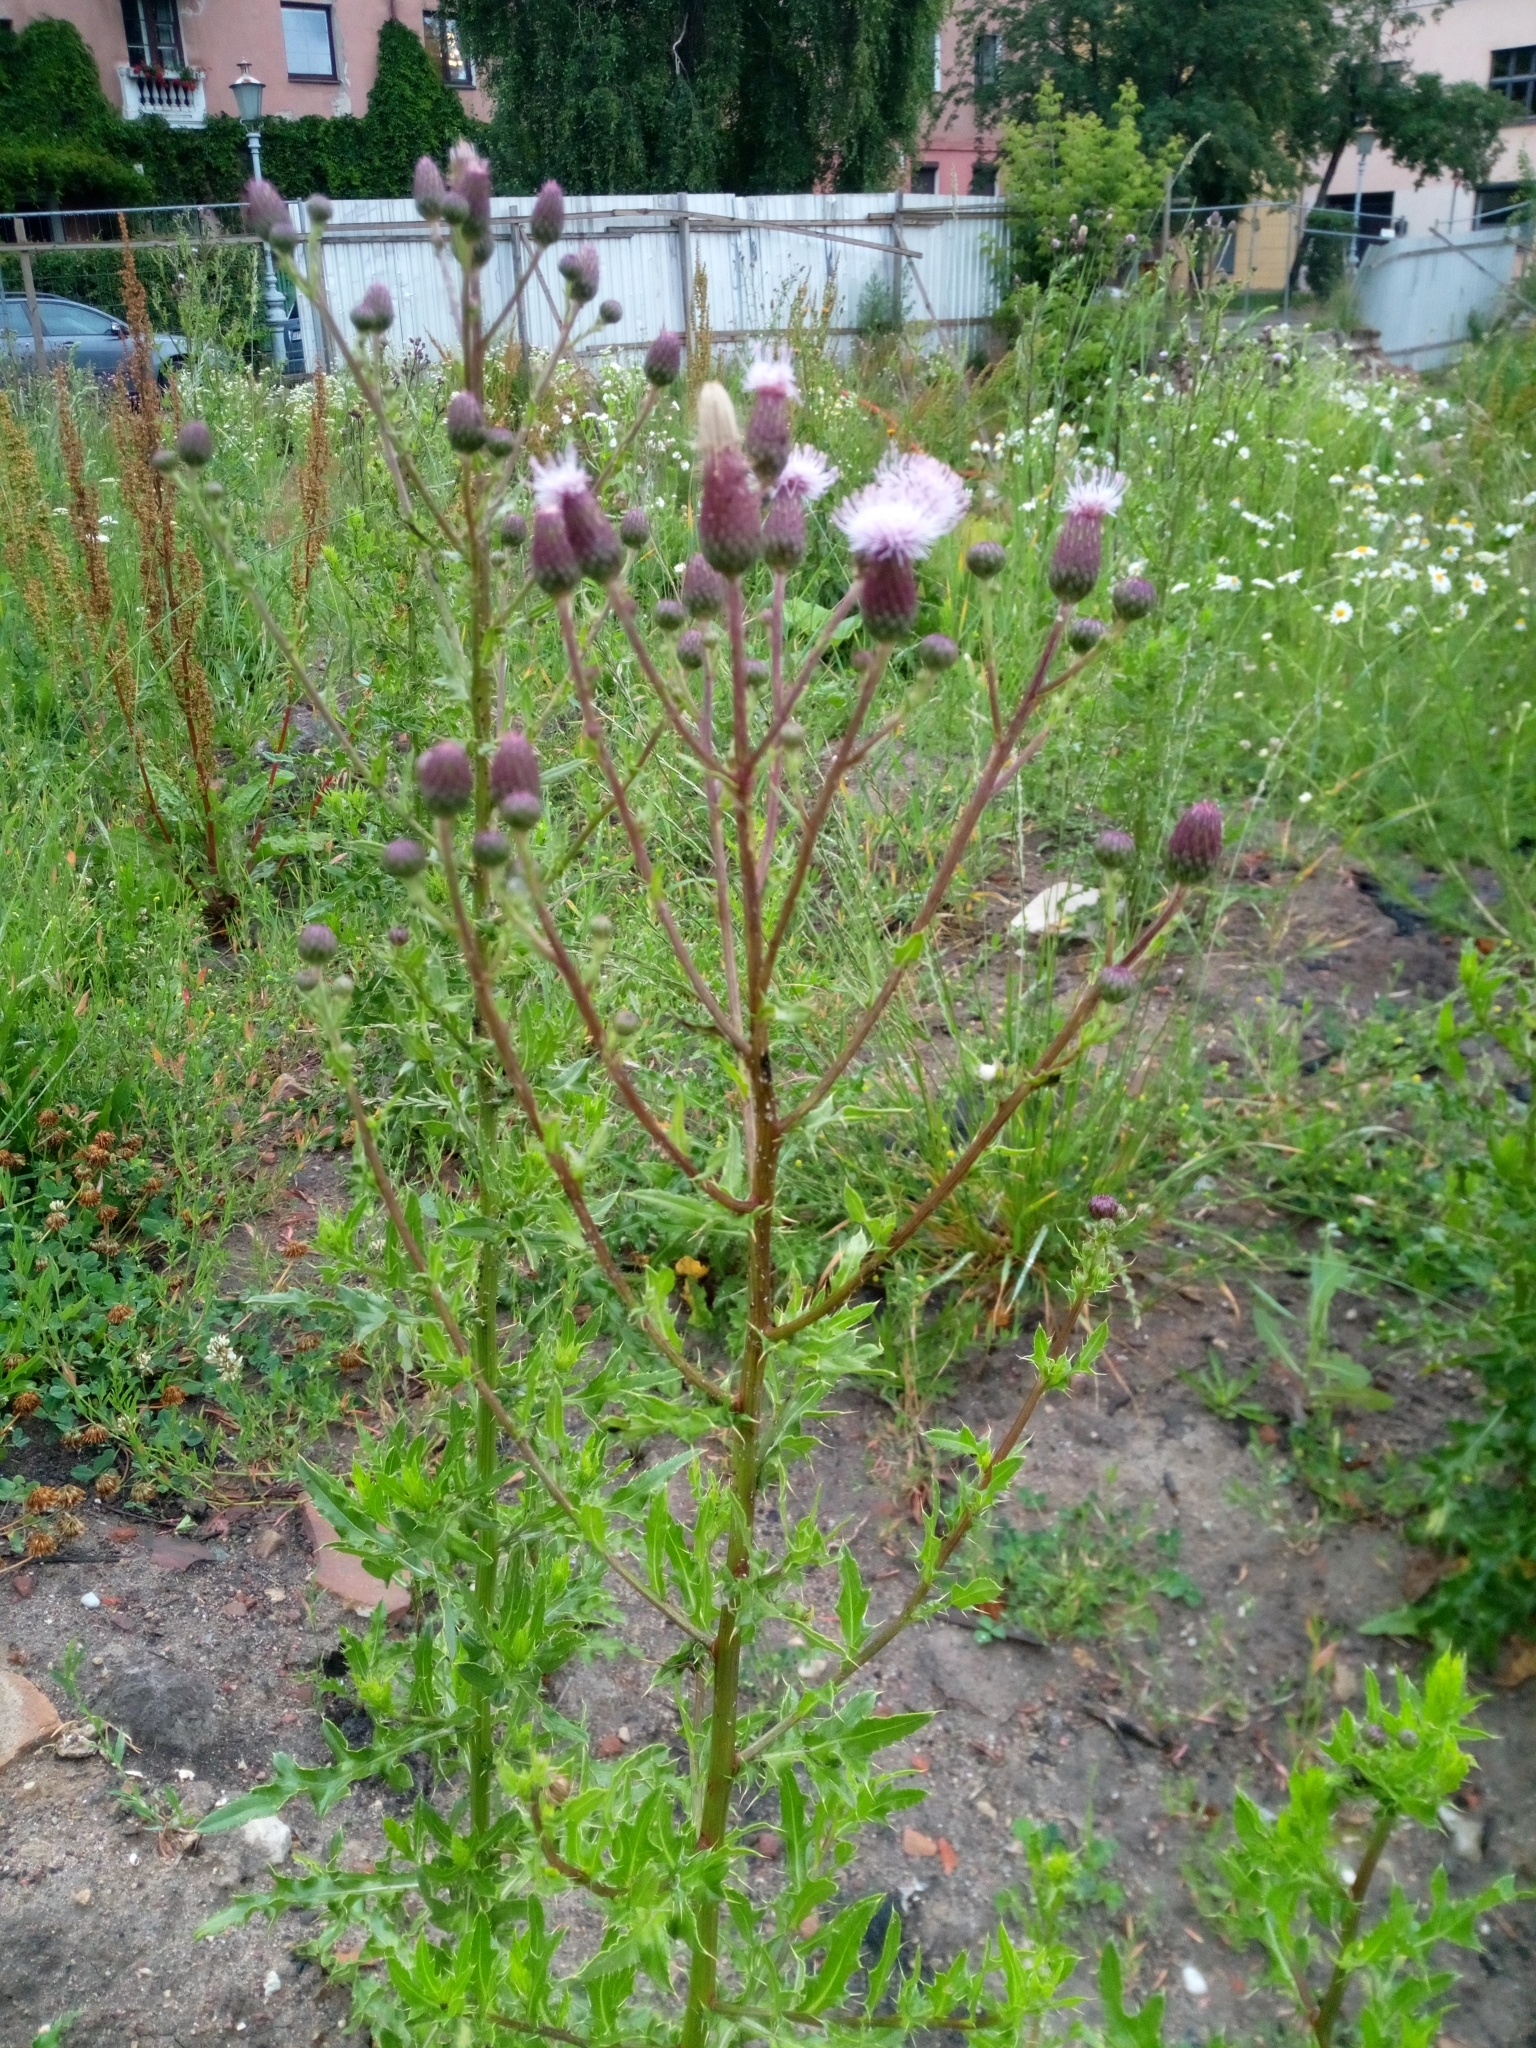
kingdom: Plantae
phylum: Tracheophyta
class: Magnoliopsida
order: Asterales
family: Asteraceae
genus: Cirsium
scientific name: Cirsium arvense
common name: Creeping thistle
